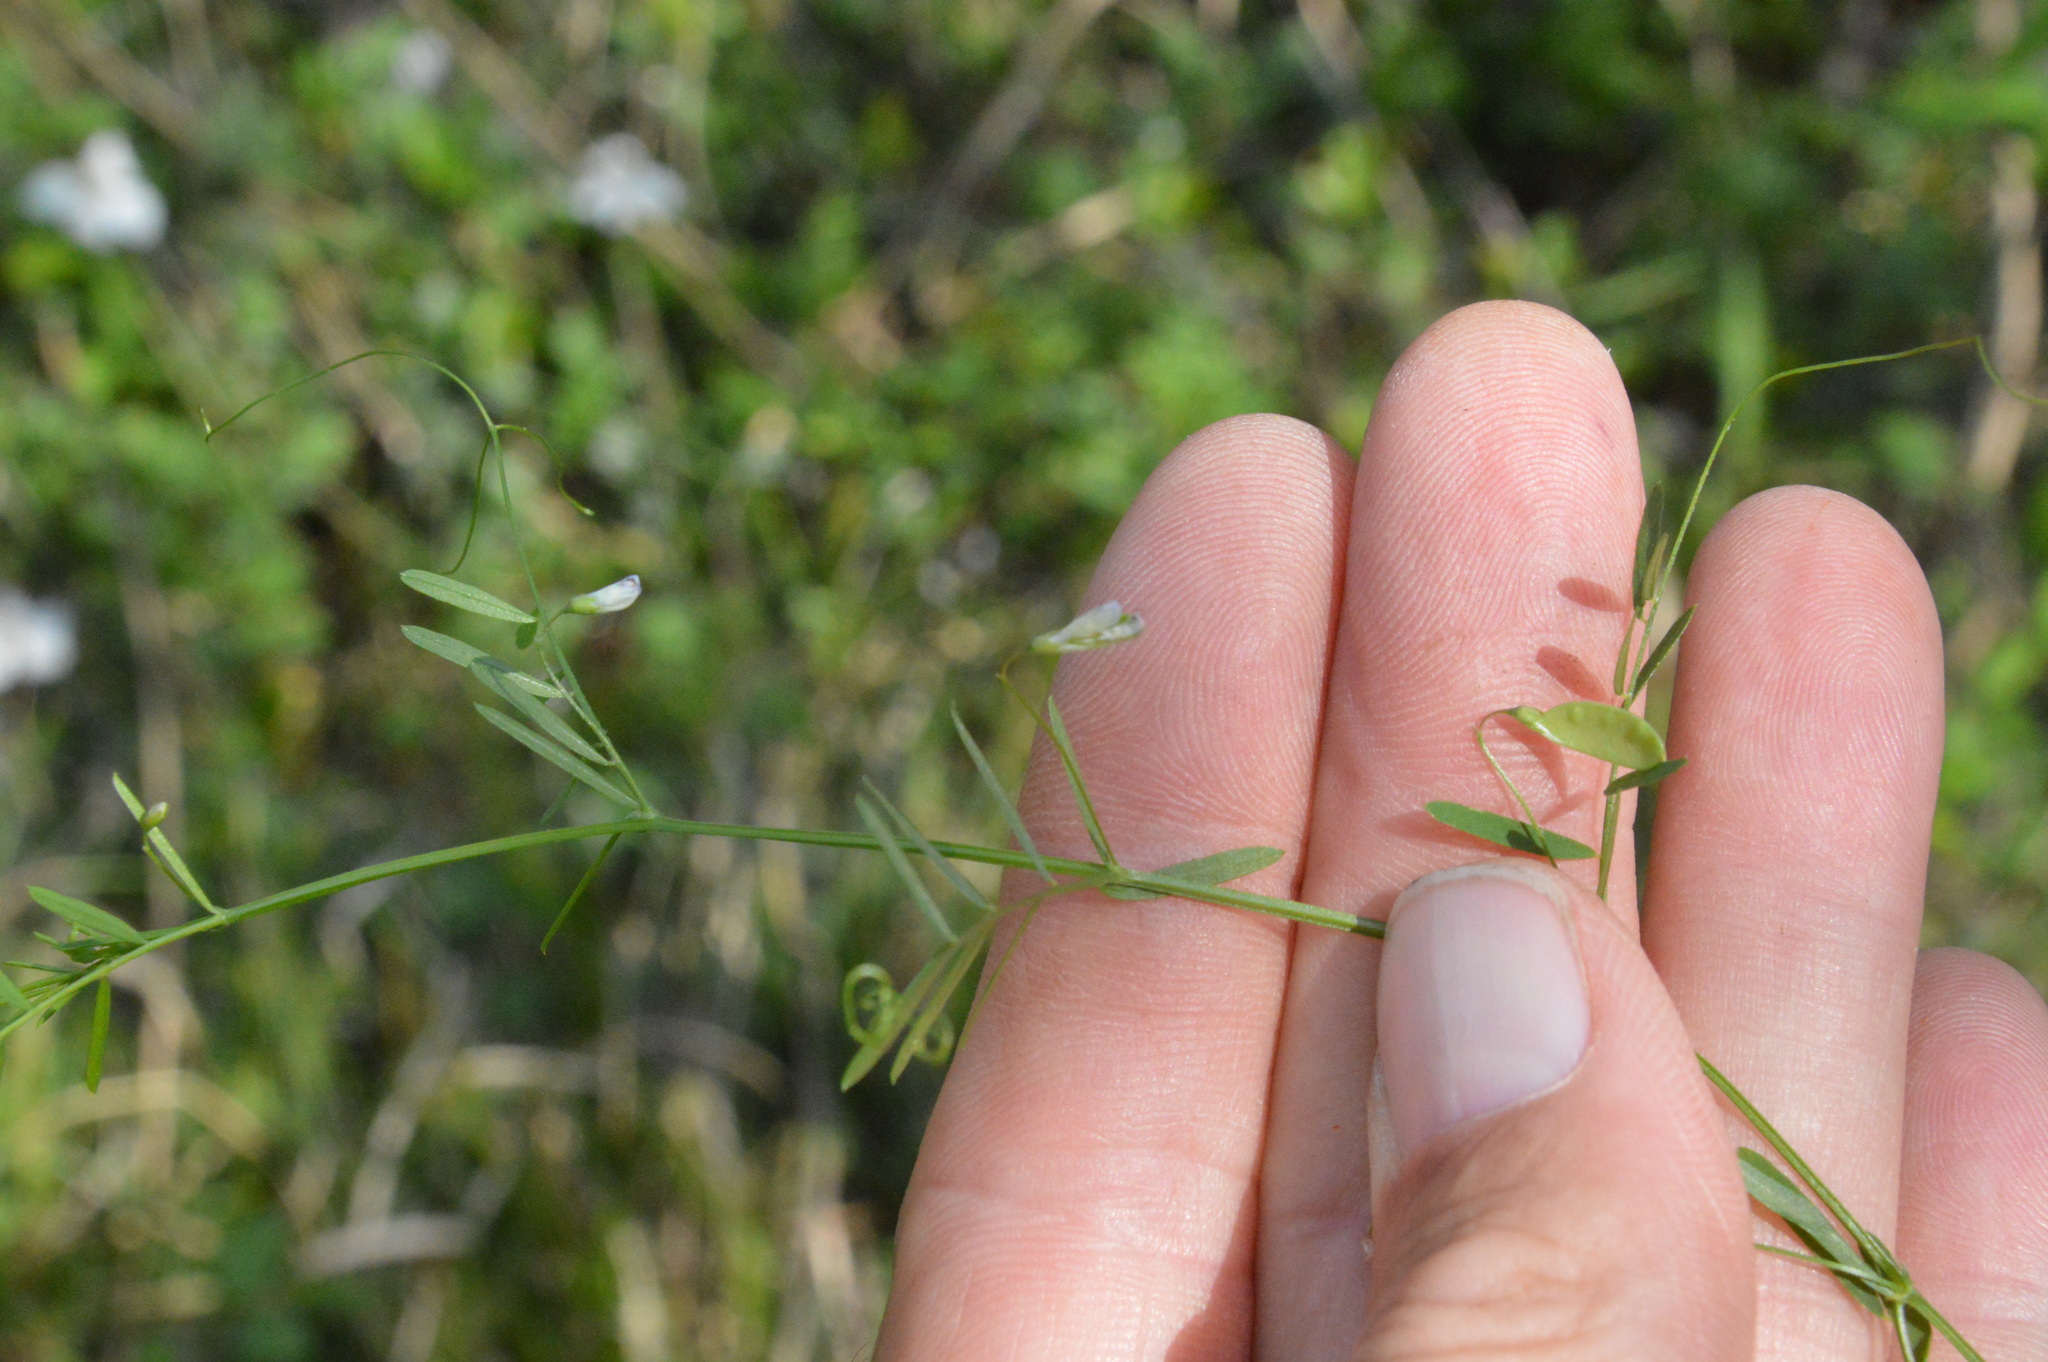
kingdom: Plantae
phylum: Tracheophyta
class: Magnoliopsida
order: Fabales
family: Fabaceae
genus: Vicia
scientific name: Vicia tetrasperma
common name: Smooth tare
